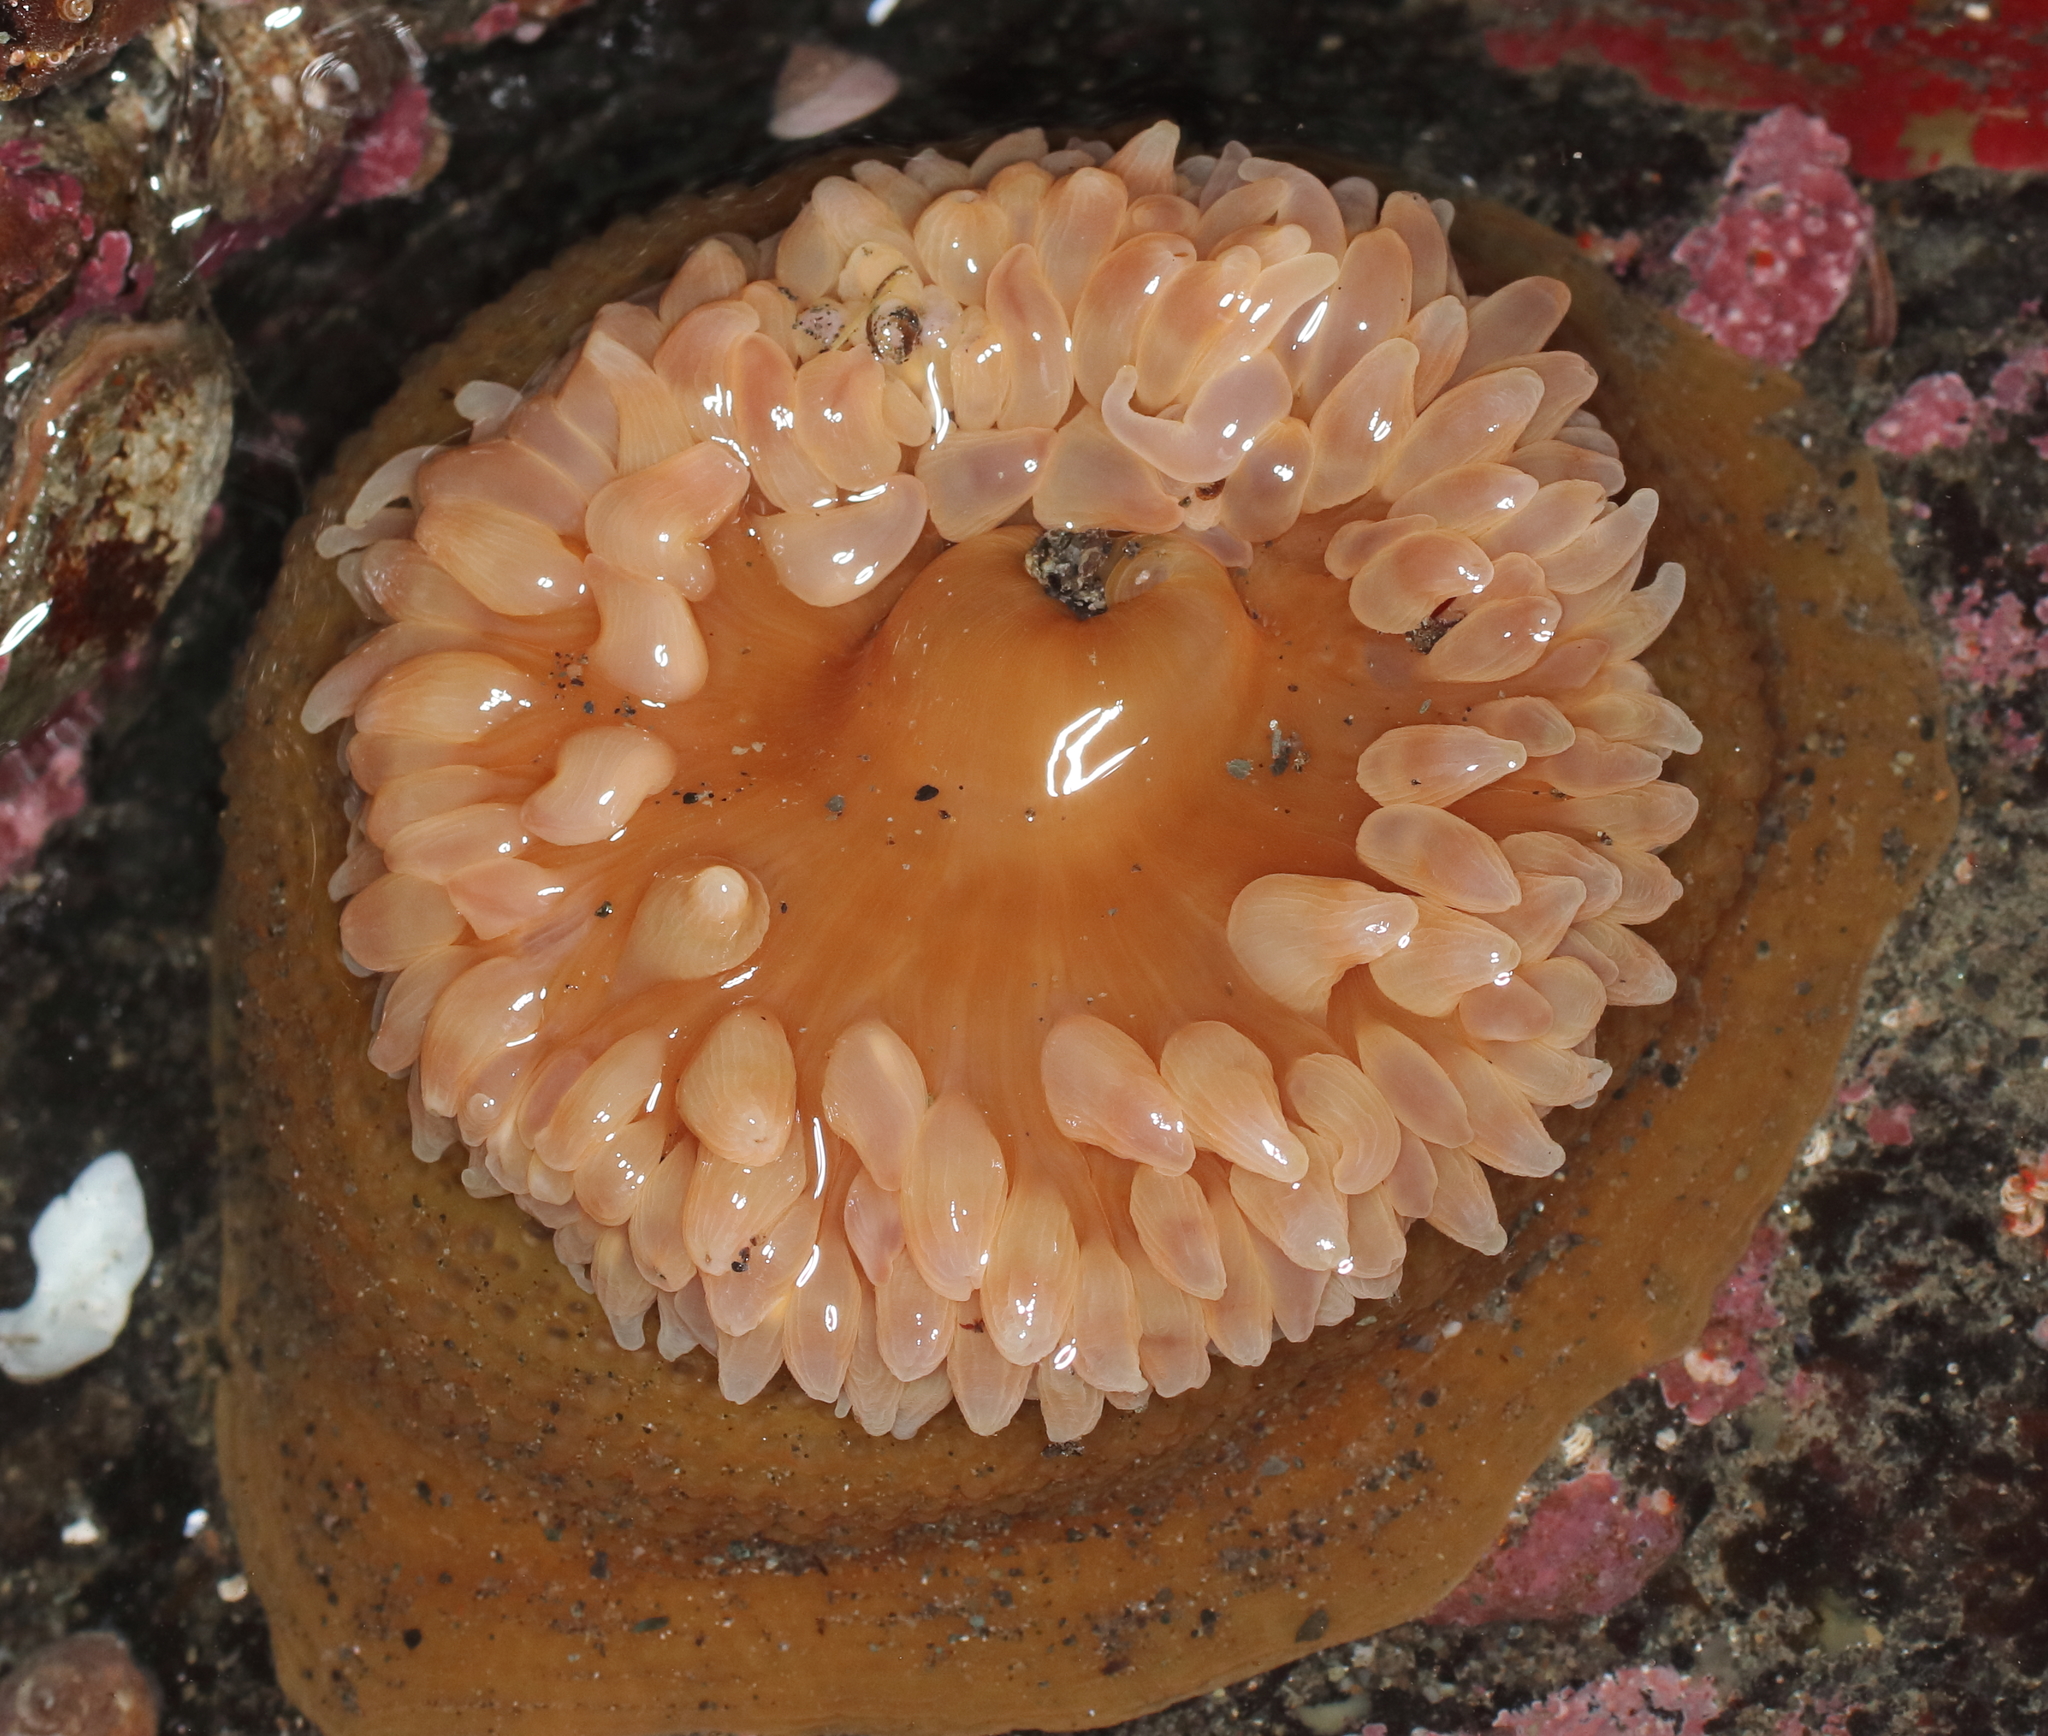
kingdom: Animalia
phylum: Cnidaria
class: Anthozoa
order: Actiniaria
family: Actiniidae
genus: Urticina
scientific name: Urticina clandestina
